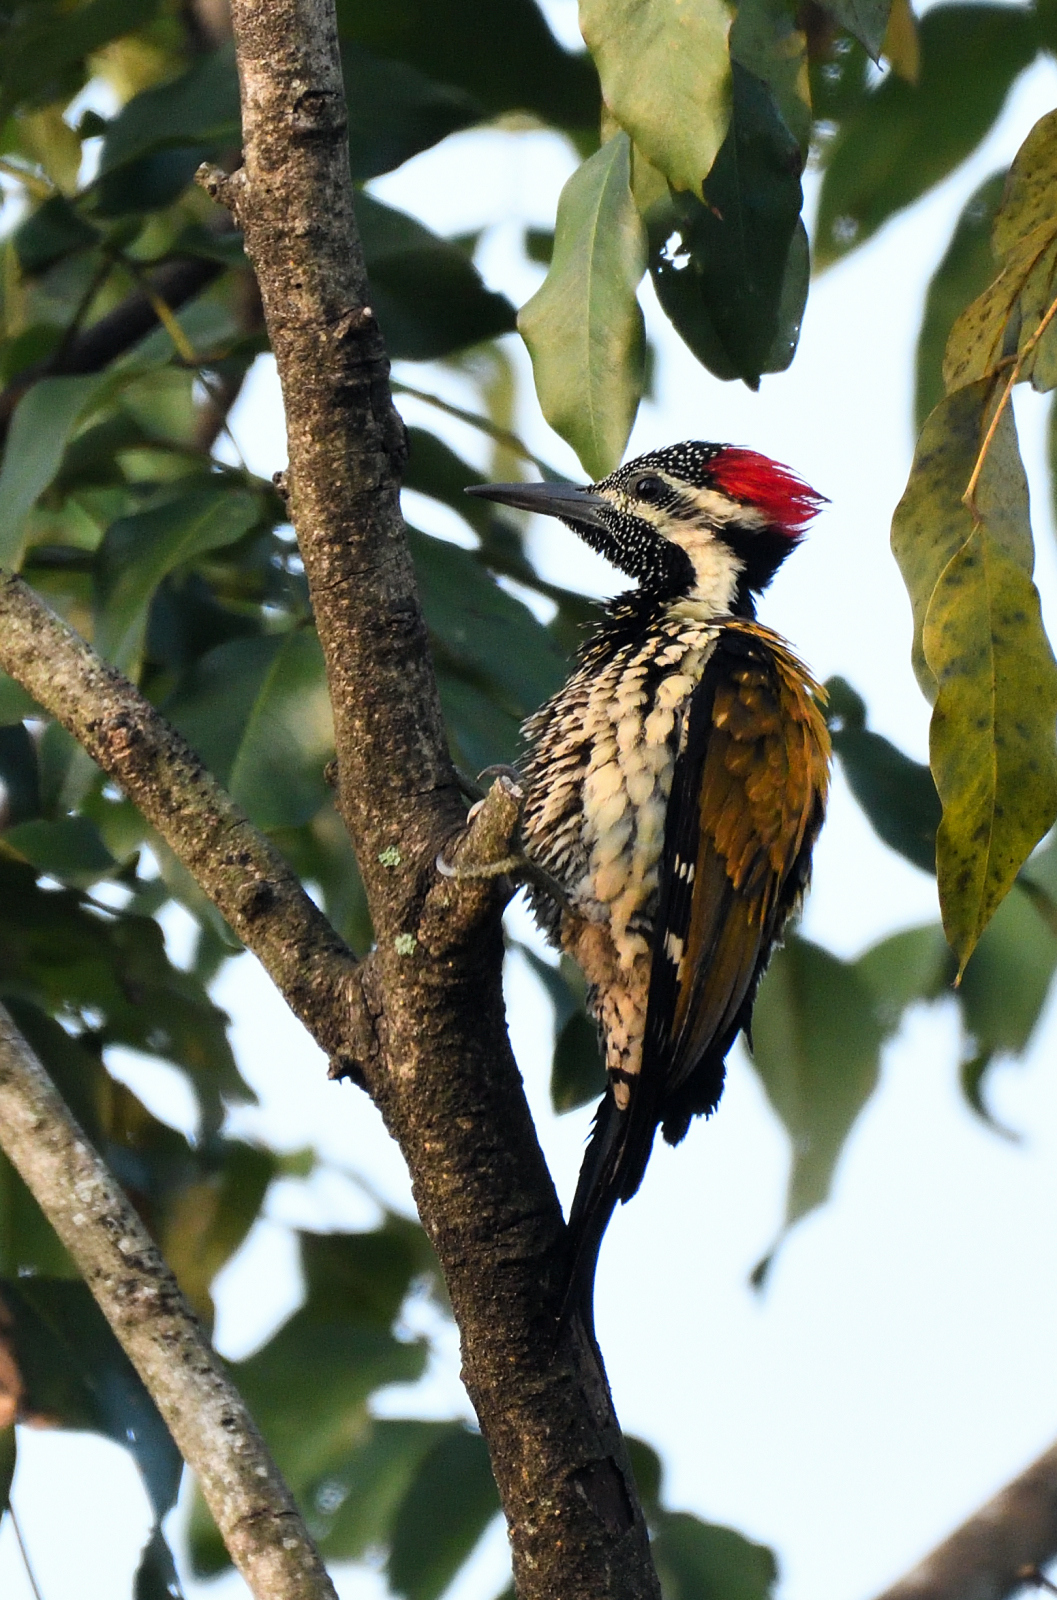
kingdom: Animalia
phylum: Chordata
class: Aves
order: Piciformes
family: Picidae
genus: Dinopium
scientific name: Dinopium benghalense
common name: Black-rumped flameback
